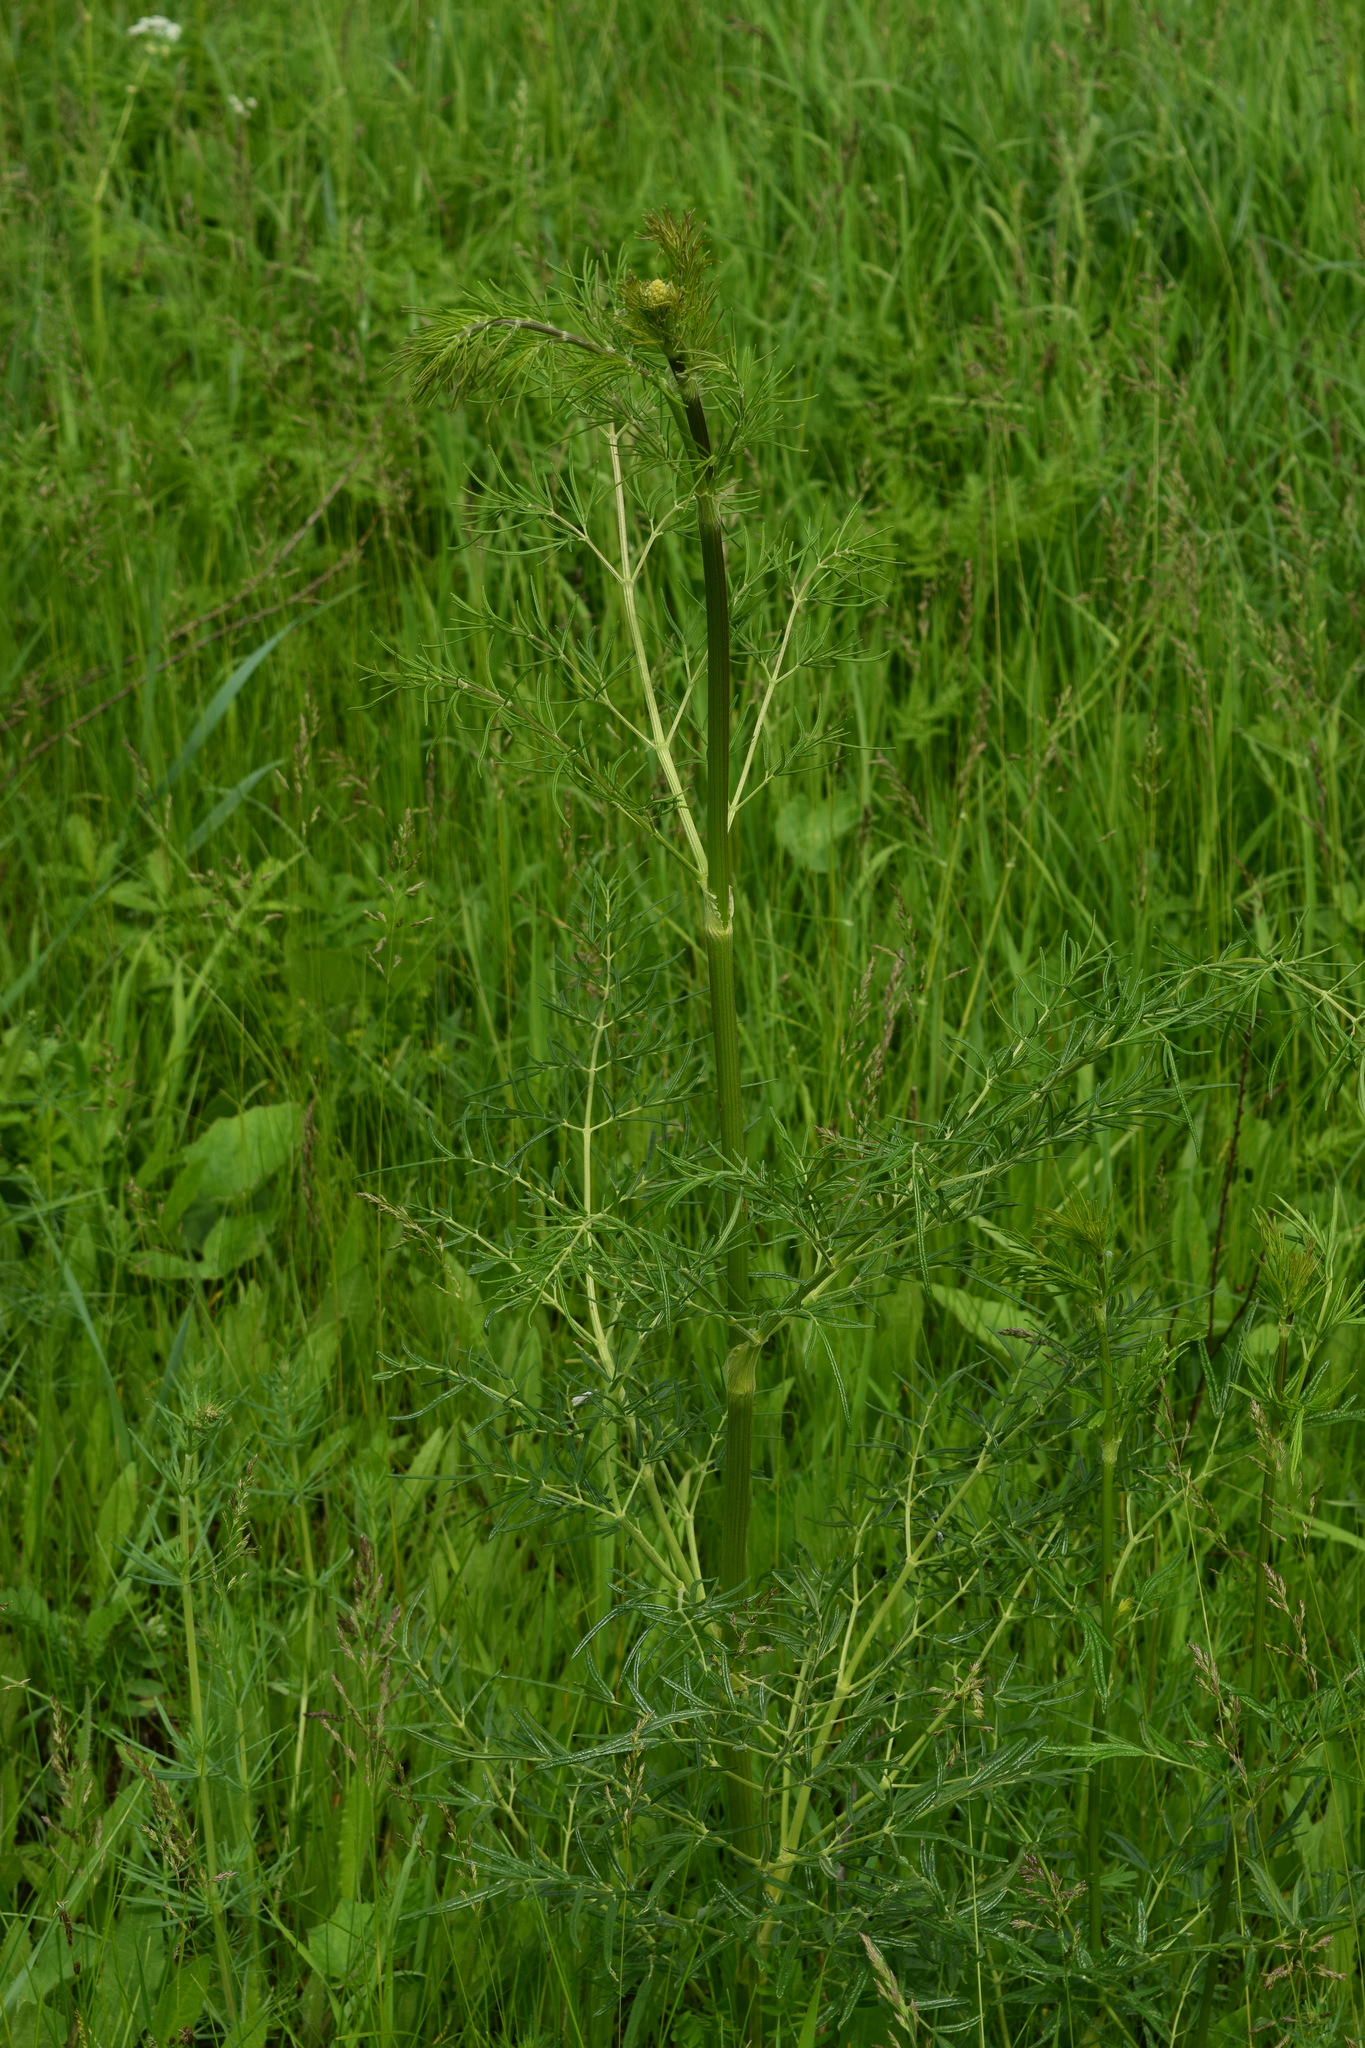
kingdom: Plantae
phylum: Tracheophyta
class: Magnoliopsida
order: Ranunculales
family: Ranunculaceae
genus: Thalictrum
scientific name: Thalictrum lucidum
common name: Shining meadow-rue
